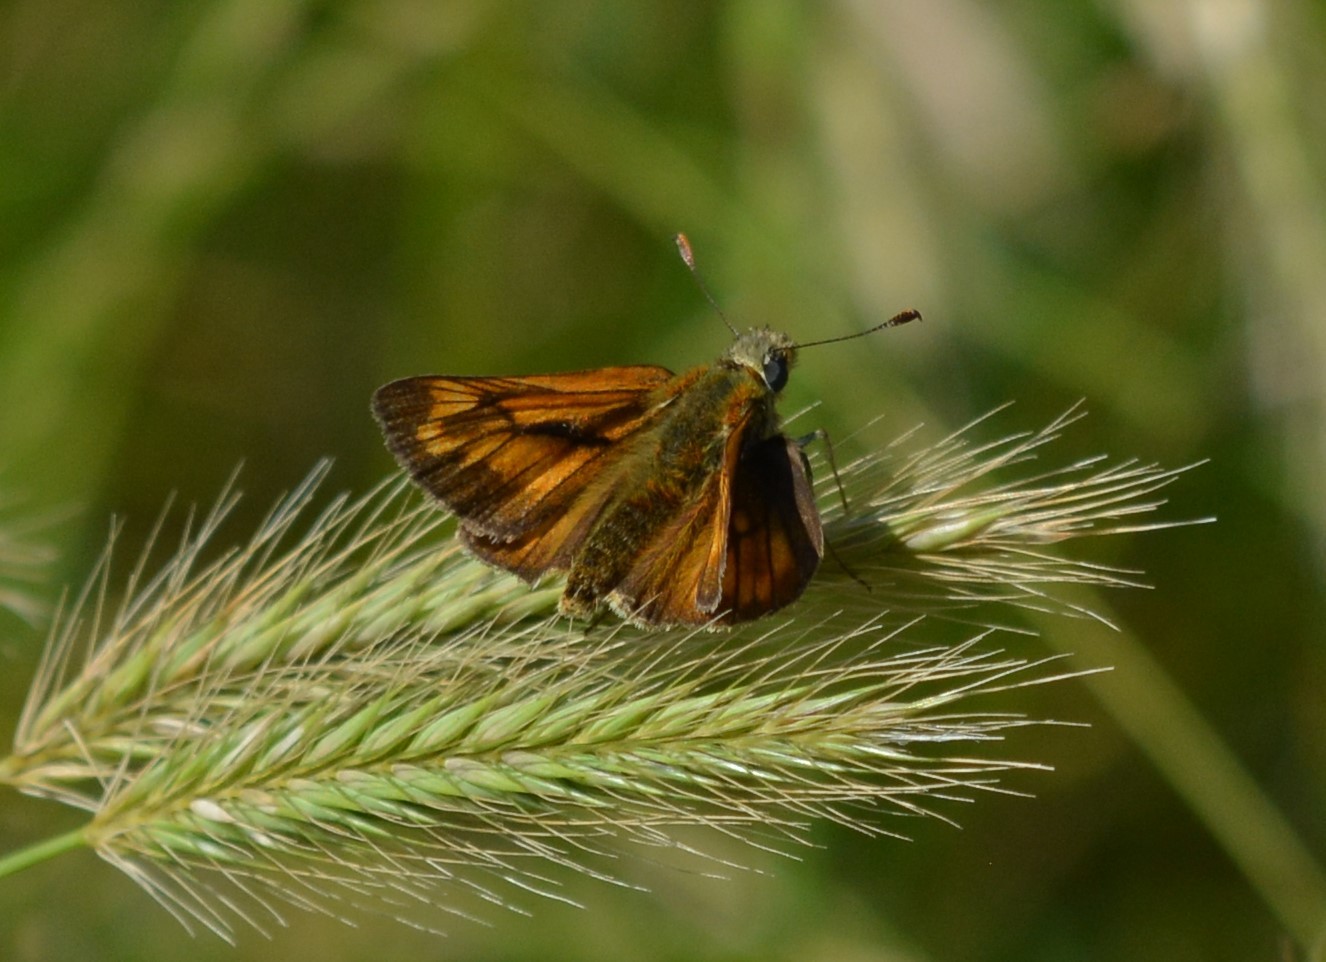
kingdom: Animalia
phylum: Arthropoda
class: Insecta
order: Lepidoptera
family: Hesperiidae
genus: Ochlodes
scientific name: Ochlodes venata
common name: Large skipper
